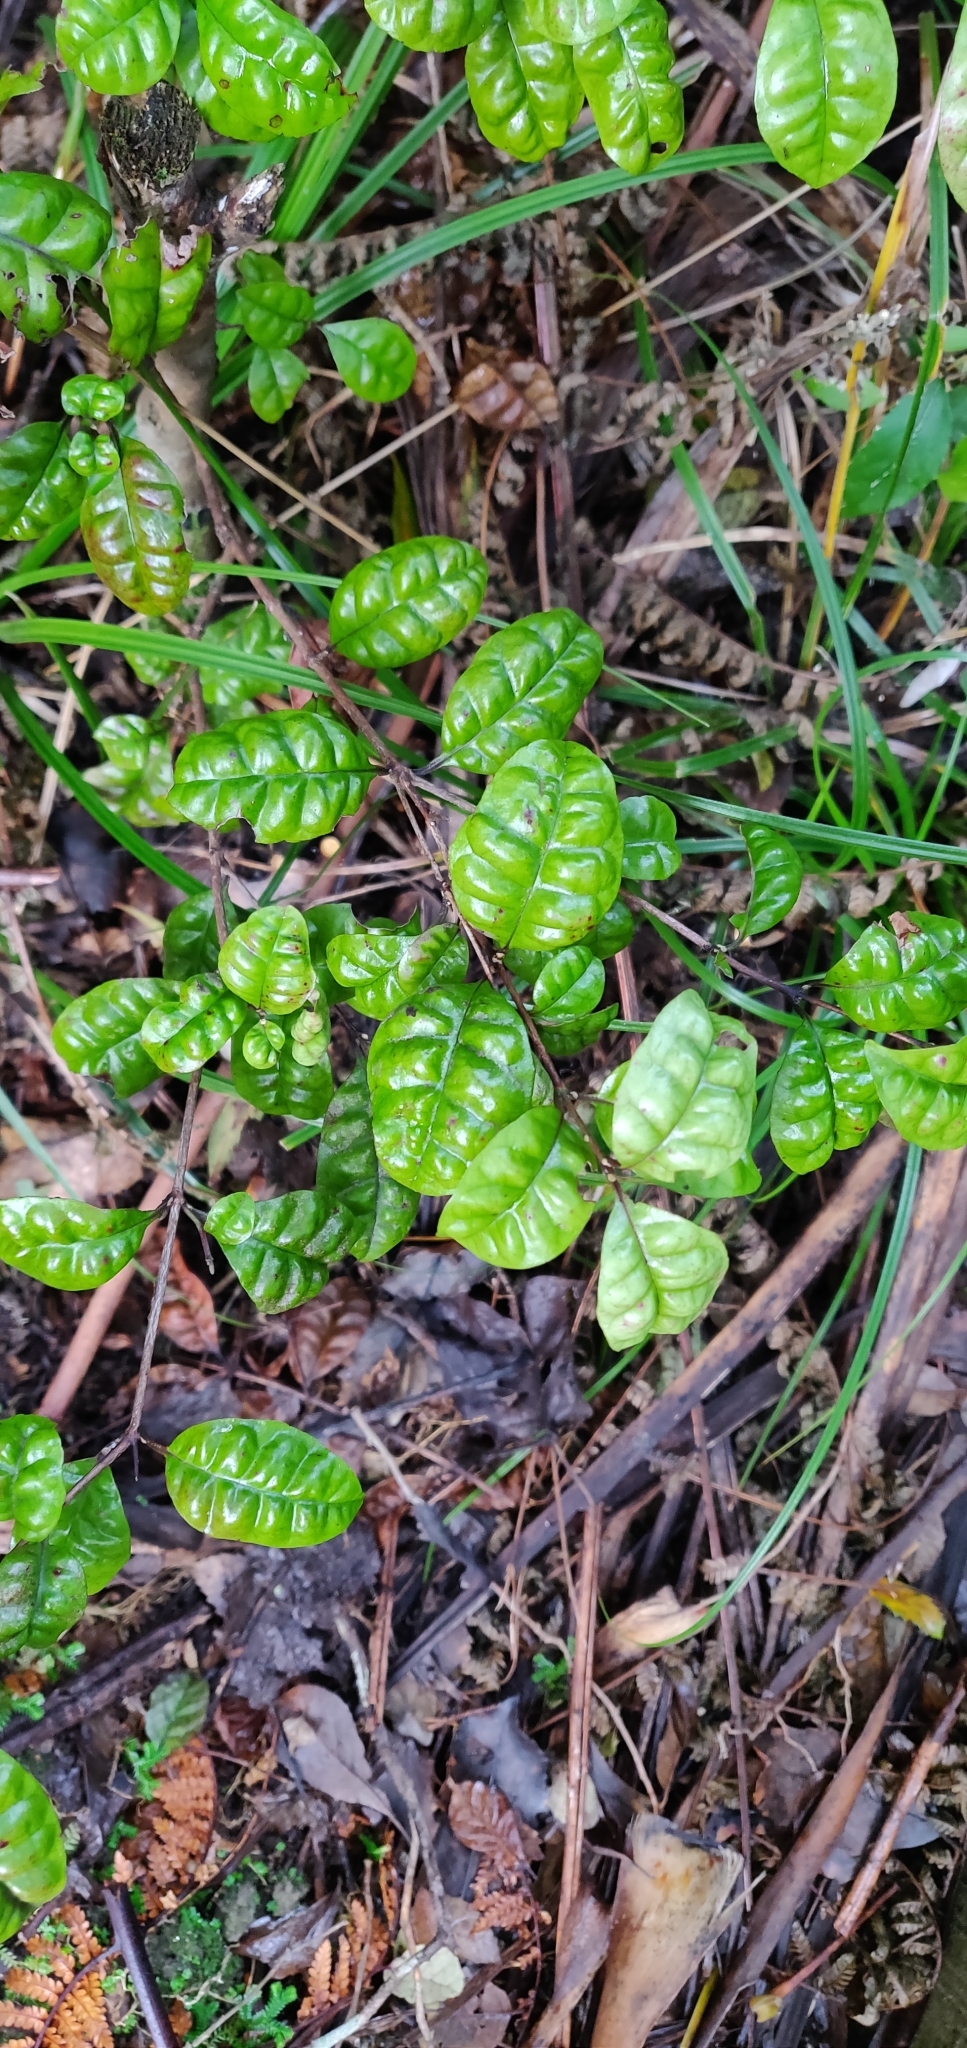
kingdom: Plantae
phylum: Tracheophyta
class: Magnoliopsida
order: Myrtales
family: Myrtaceae
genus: Lophomyrtus
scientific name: Lophomyrtus bullata
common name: Rama rama
